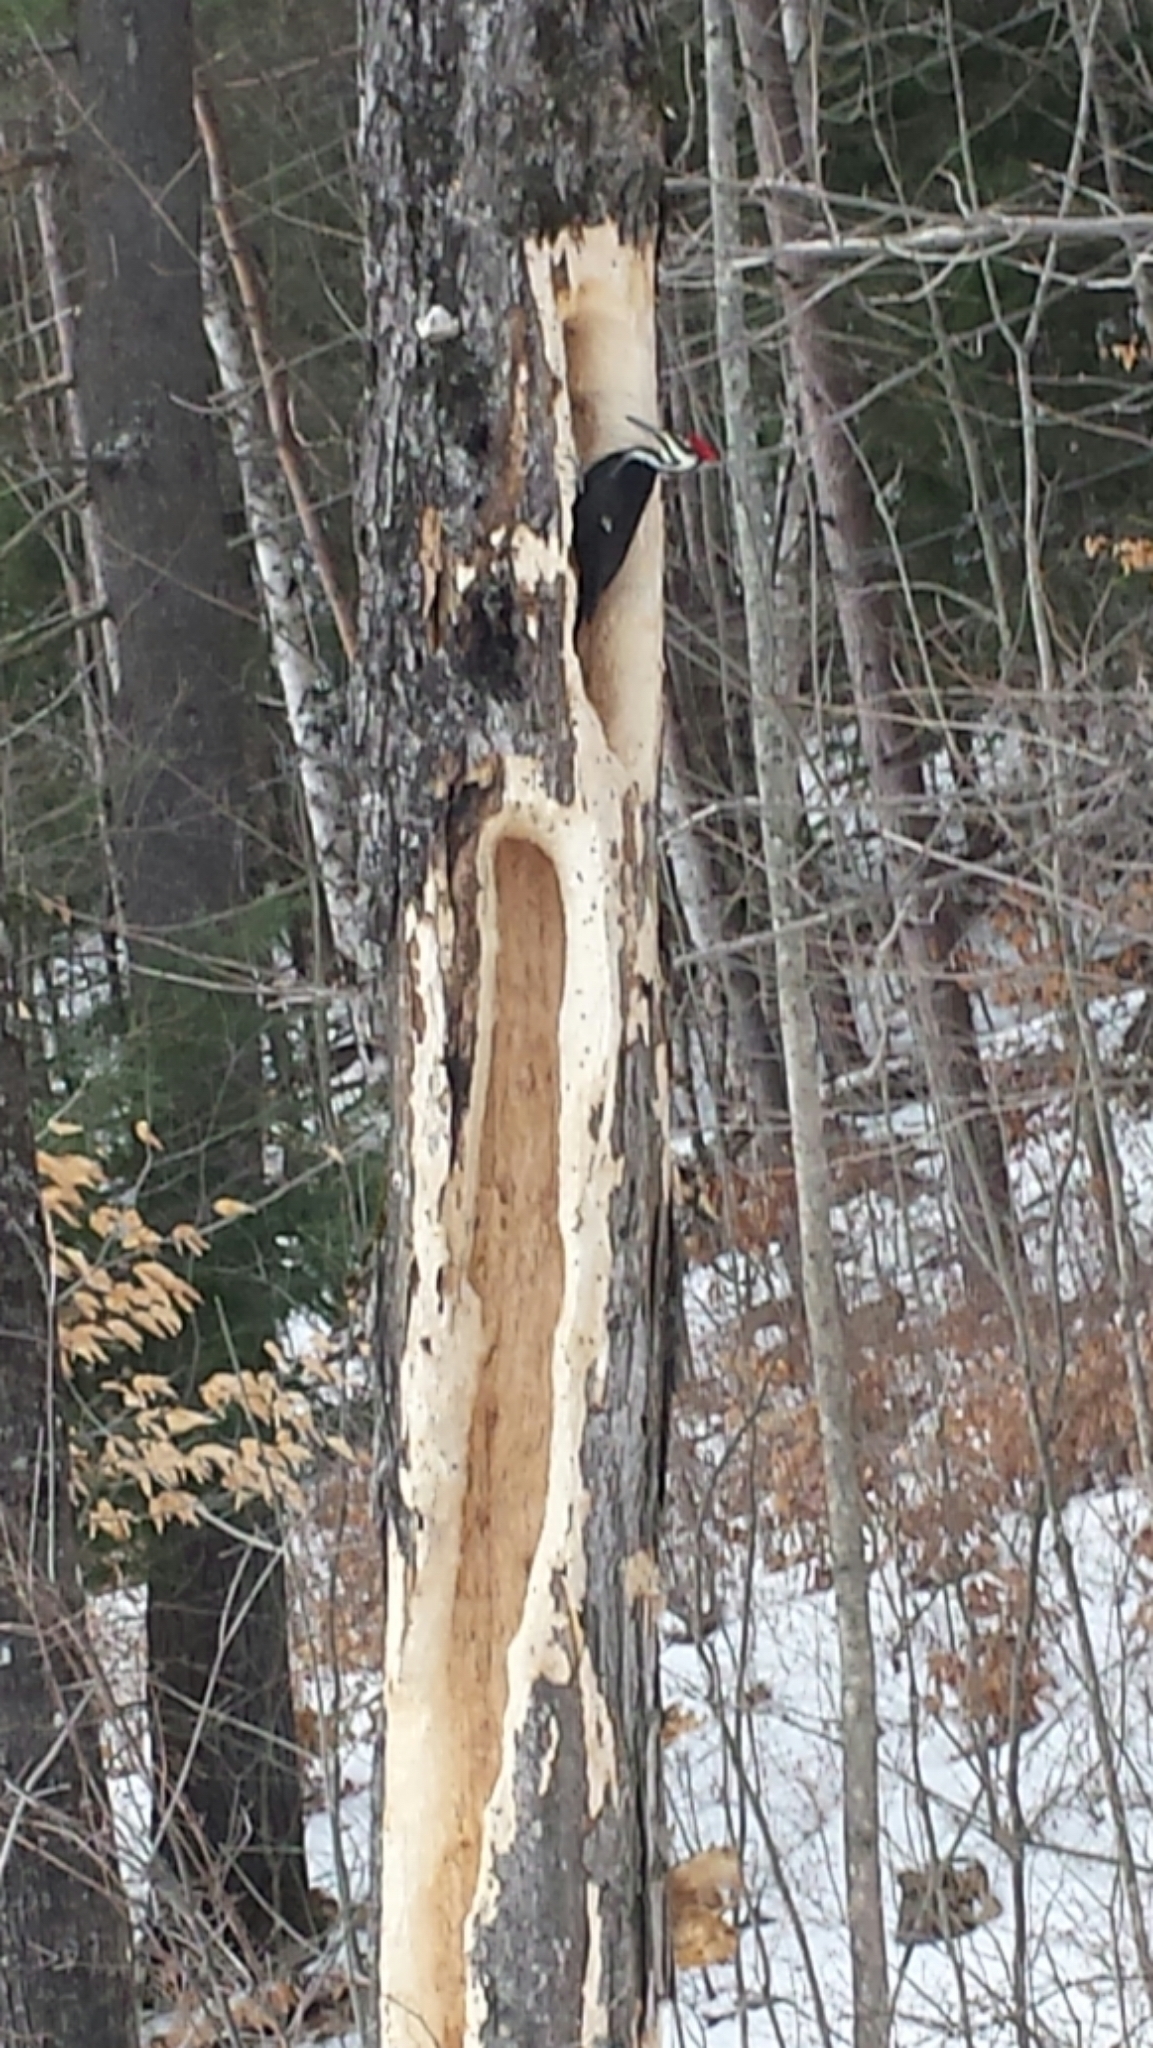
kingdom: Animalia
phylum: Chordata
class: Aves
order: Piciformes
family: Picidae
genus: Dryocopus
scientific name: Dryocopus pileatus
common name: Pileated woodpecker
